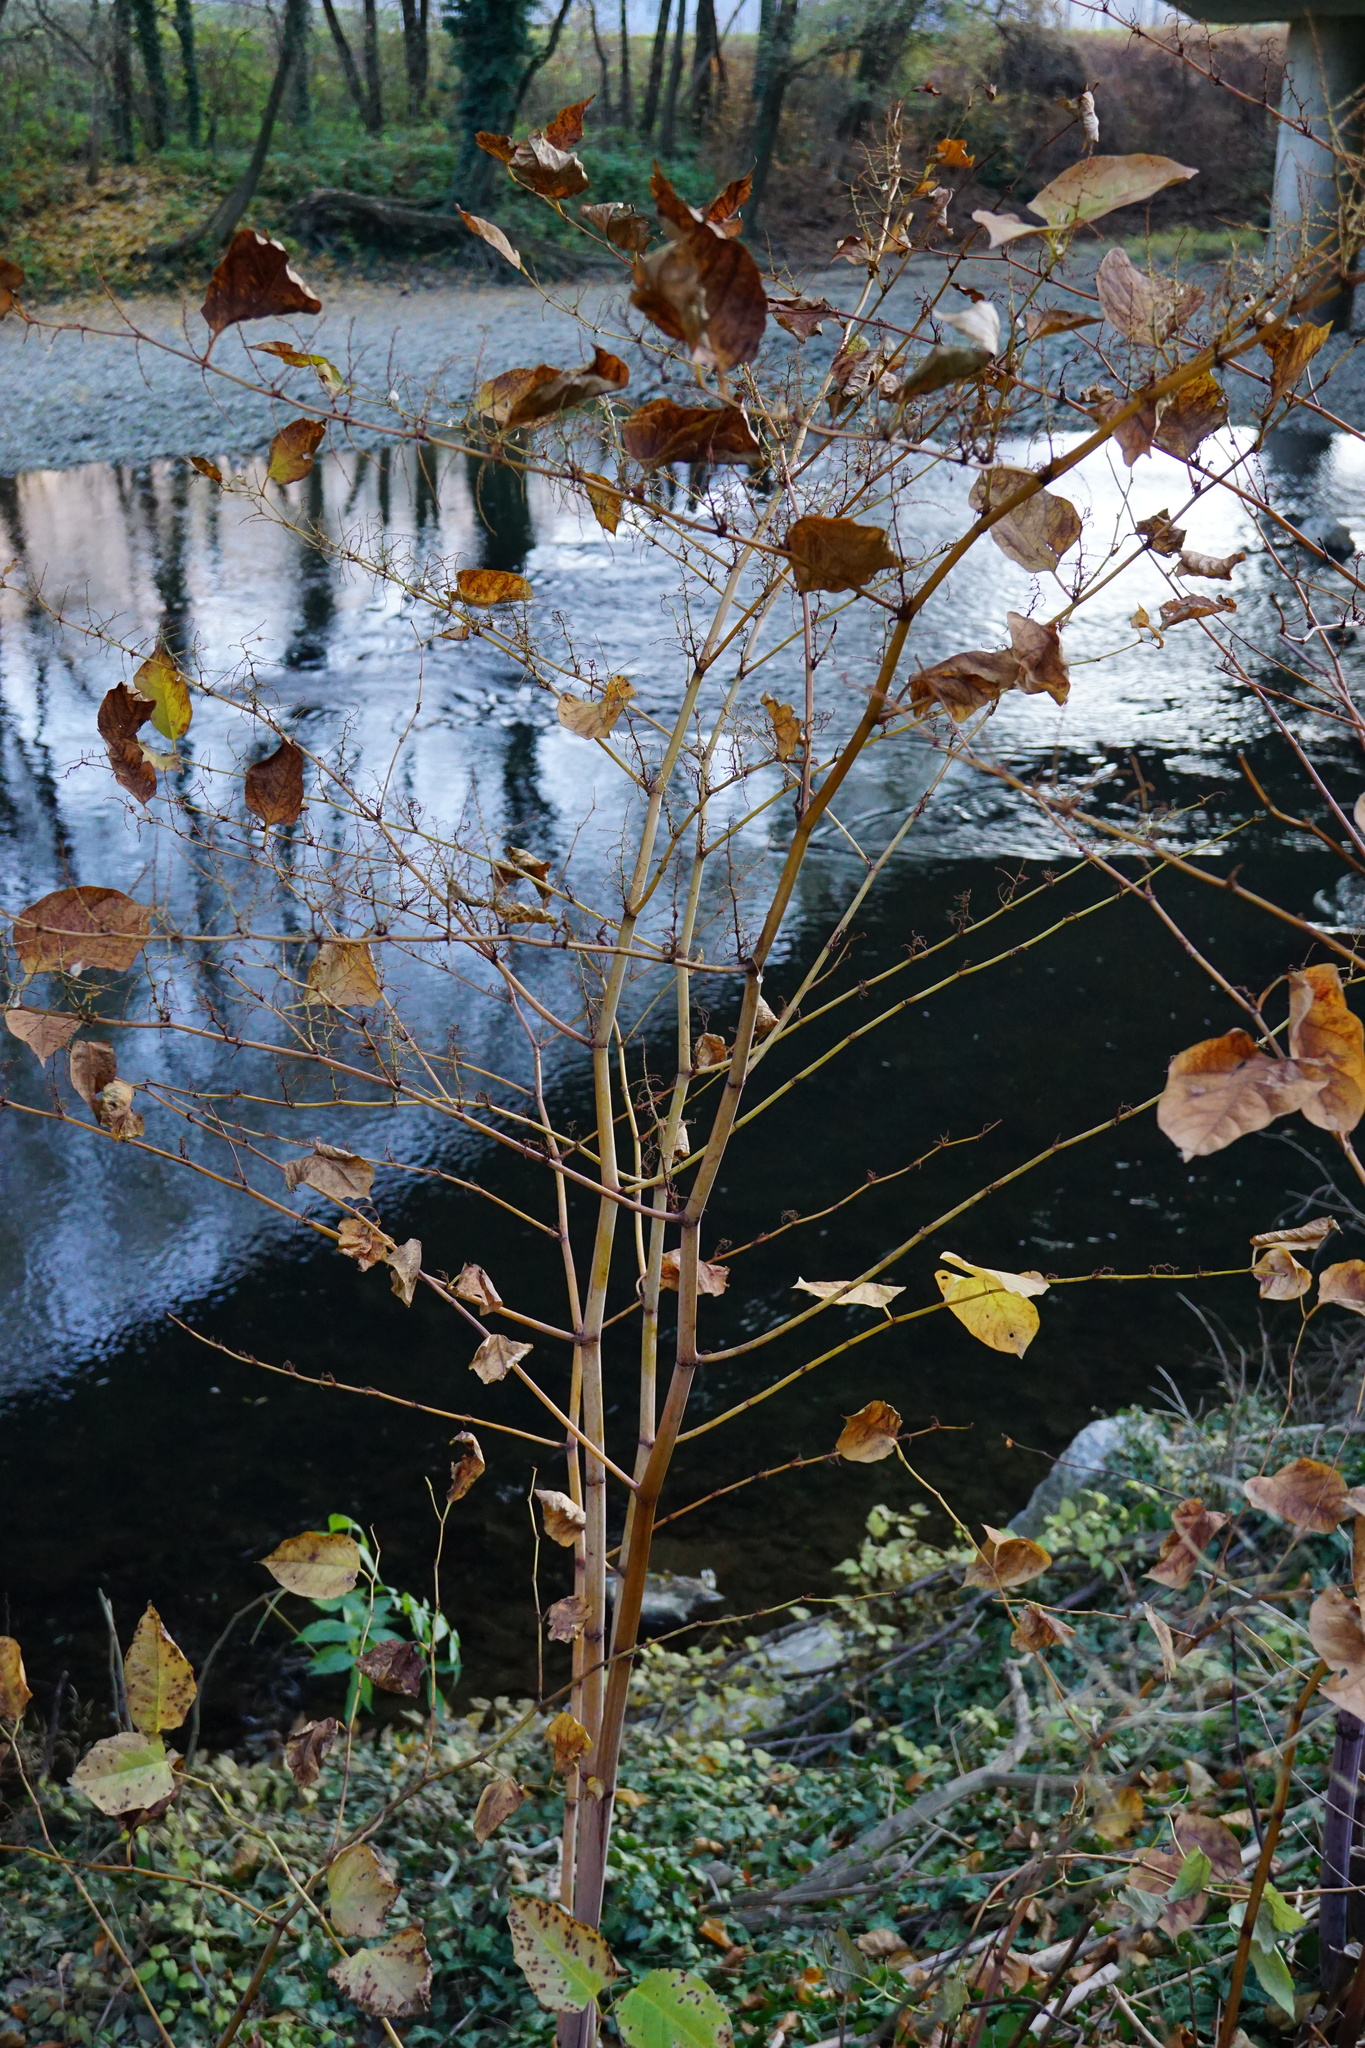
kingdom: Plantae
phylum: Tracheophyta
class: Magnoliopsida
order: Caryophyllales
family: Polygonaceae
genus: Reynoutria
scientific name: Reynoutria japonica
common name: Japanese knotweed
